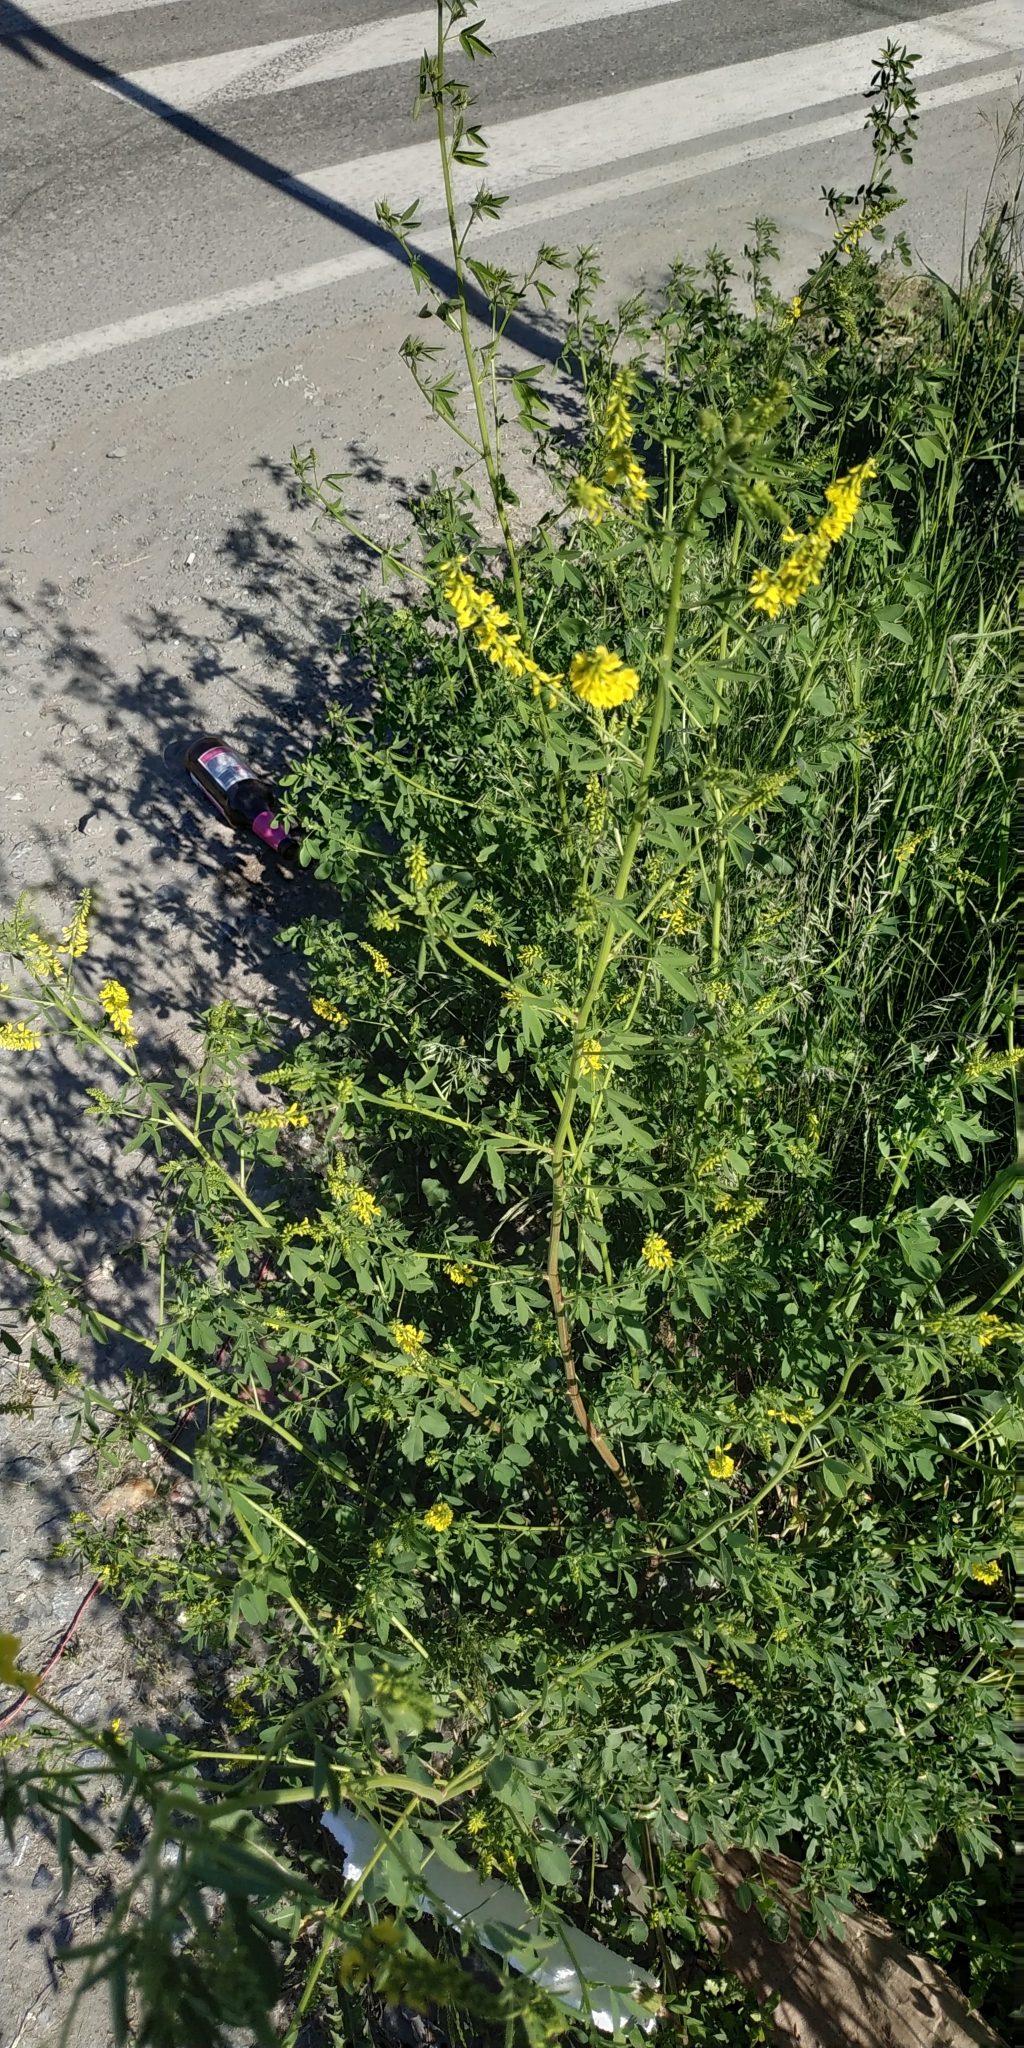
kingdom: Plantae
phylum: Tracheophyta
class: Magnoliopsida
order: Fabales
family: Fabaceae
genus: Melilotus
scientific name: Melilotus officinalis
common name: Sweetclover
